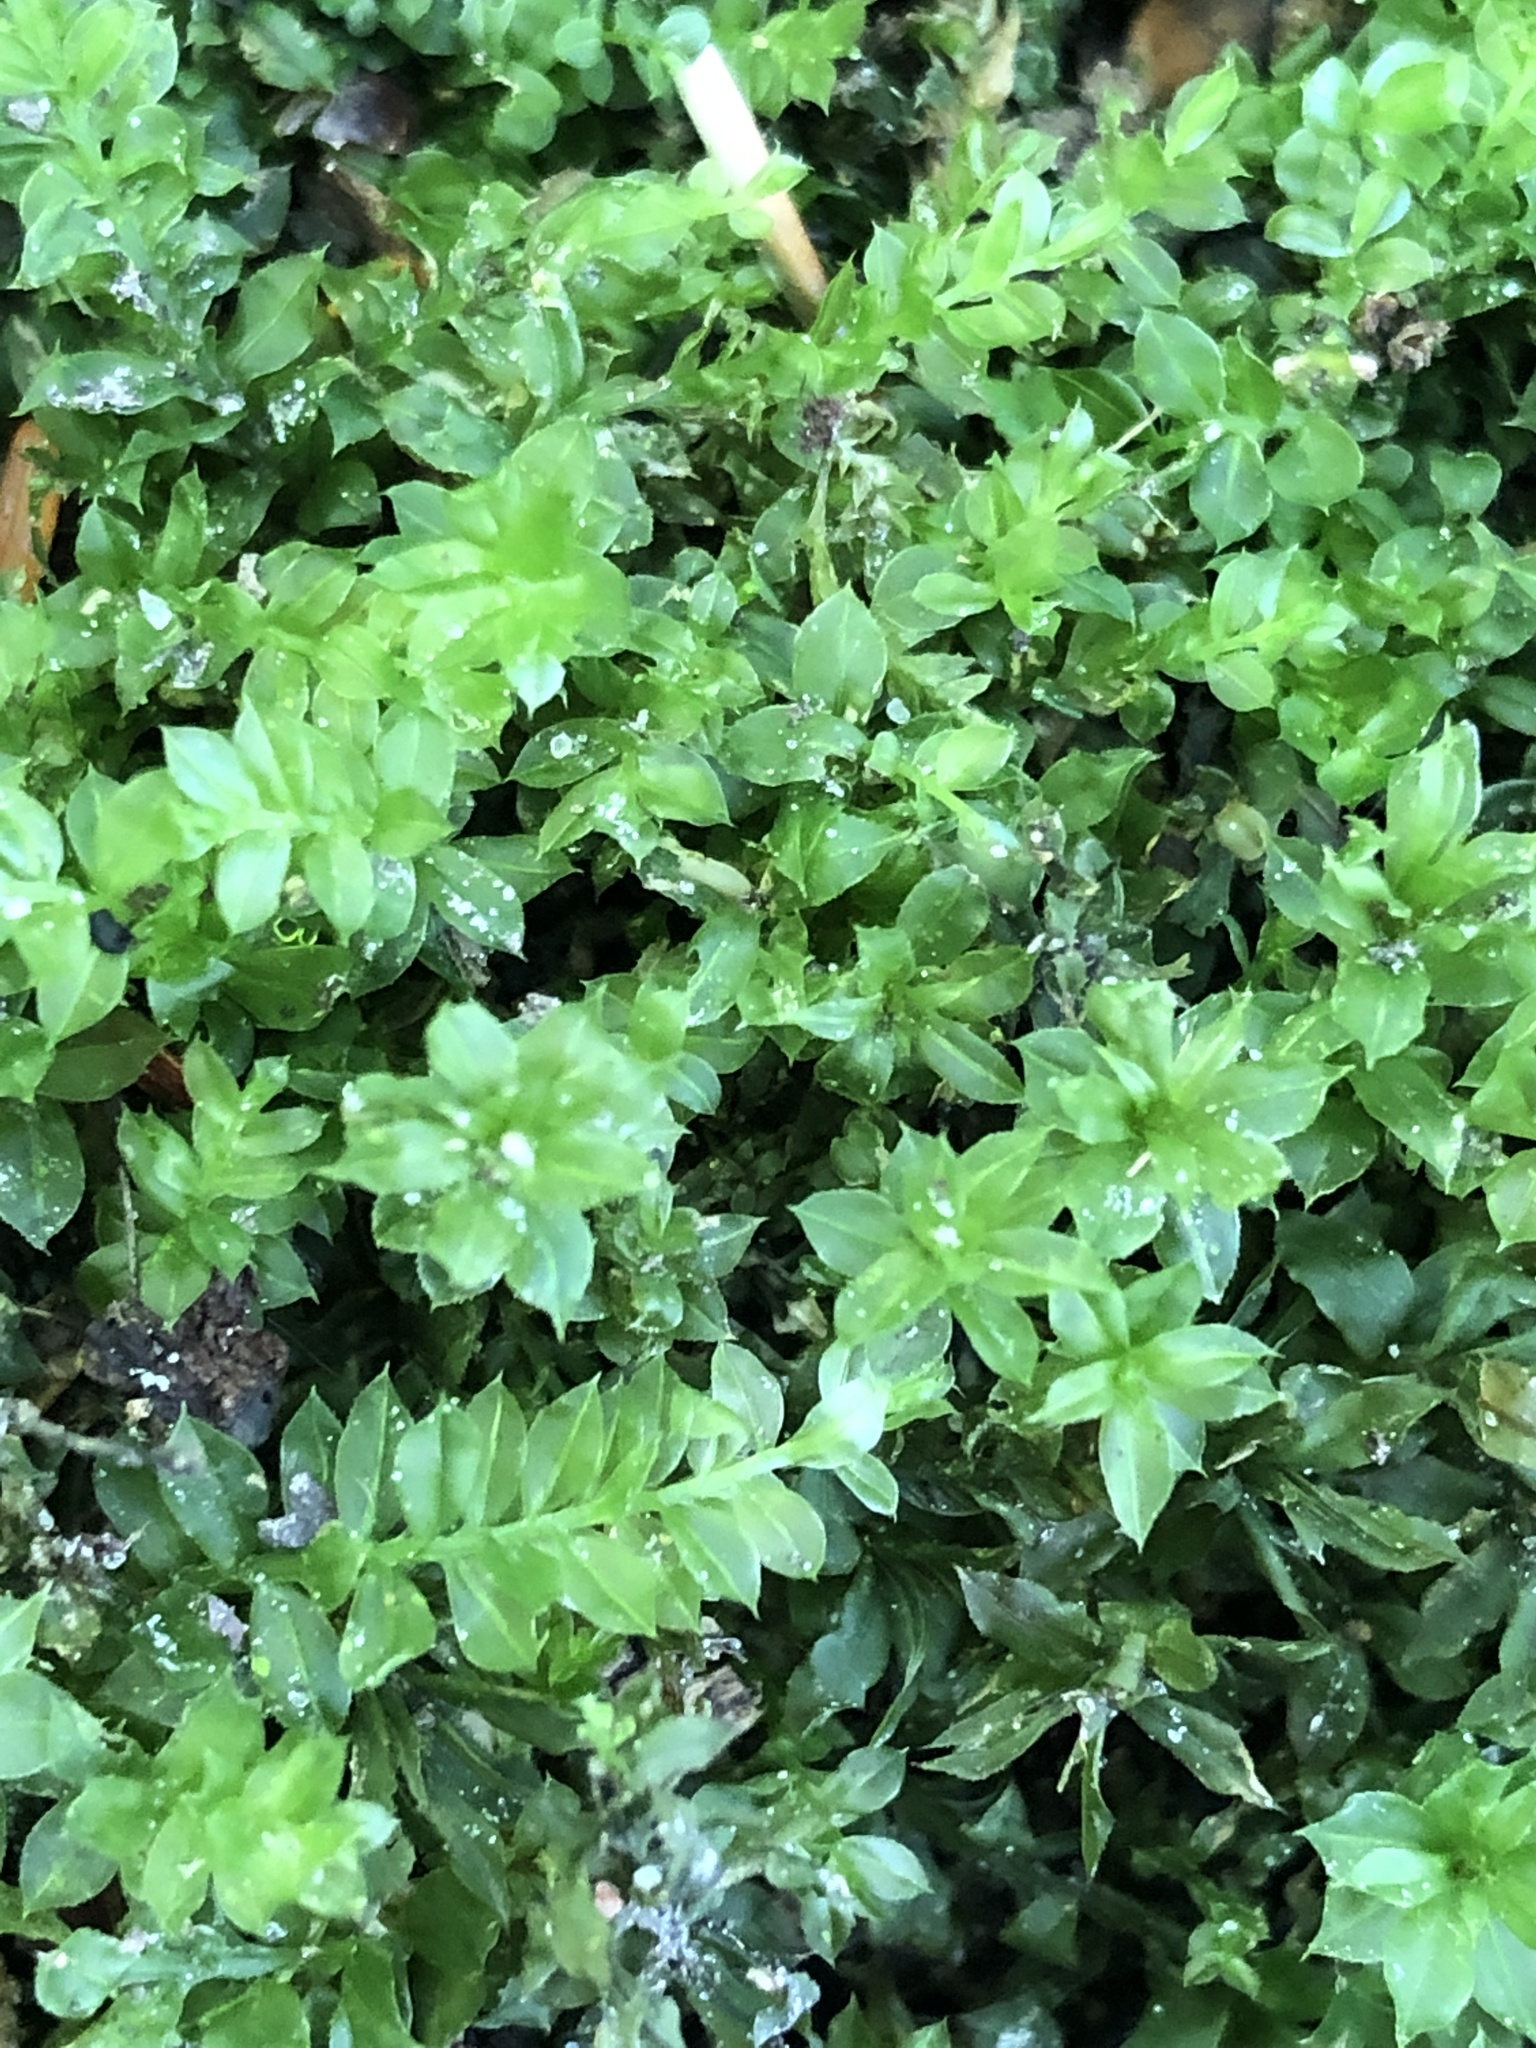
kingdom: Plantae
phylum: Bryophyta
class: Bryopsida
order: Bryales
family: Mniaceae
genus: Plagiomnium
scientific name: Plagiomnium cuspidatum
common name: Woodsy leafy moss
